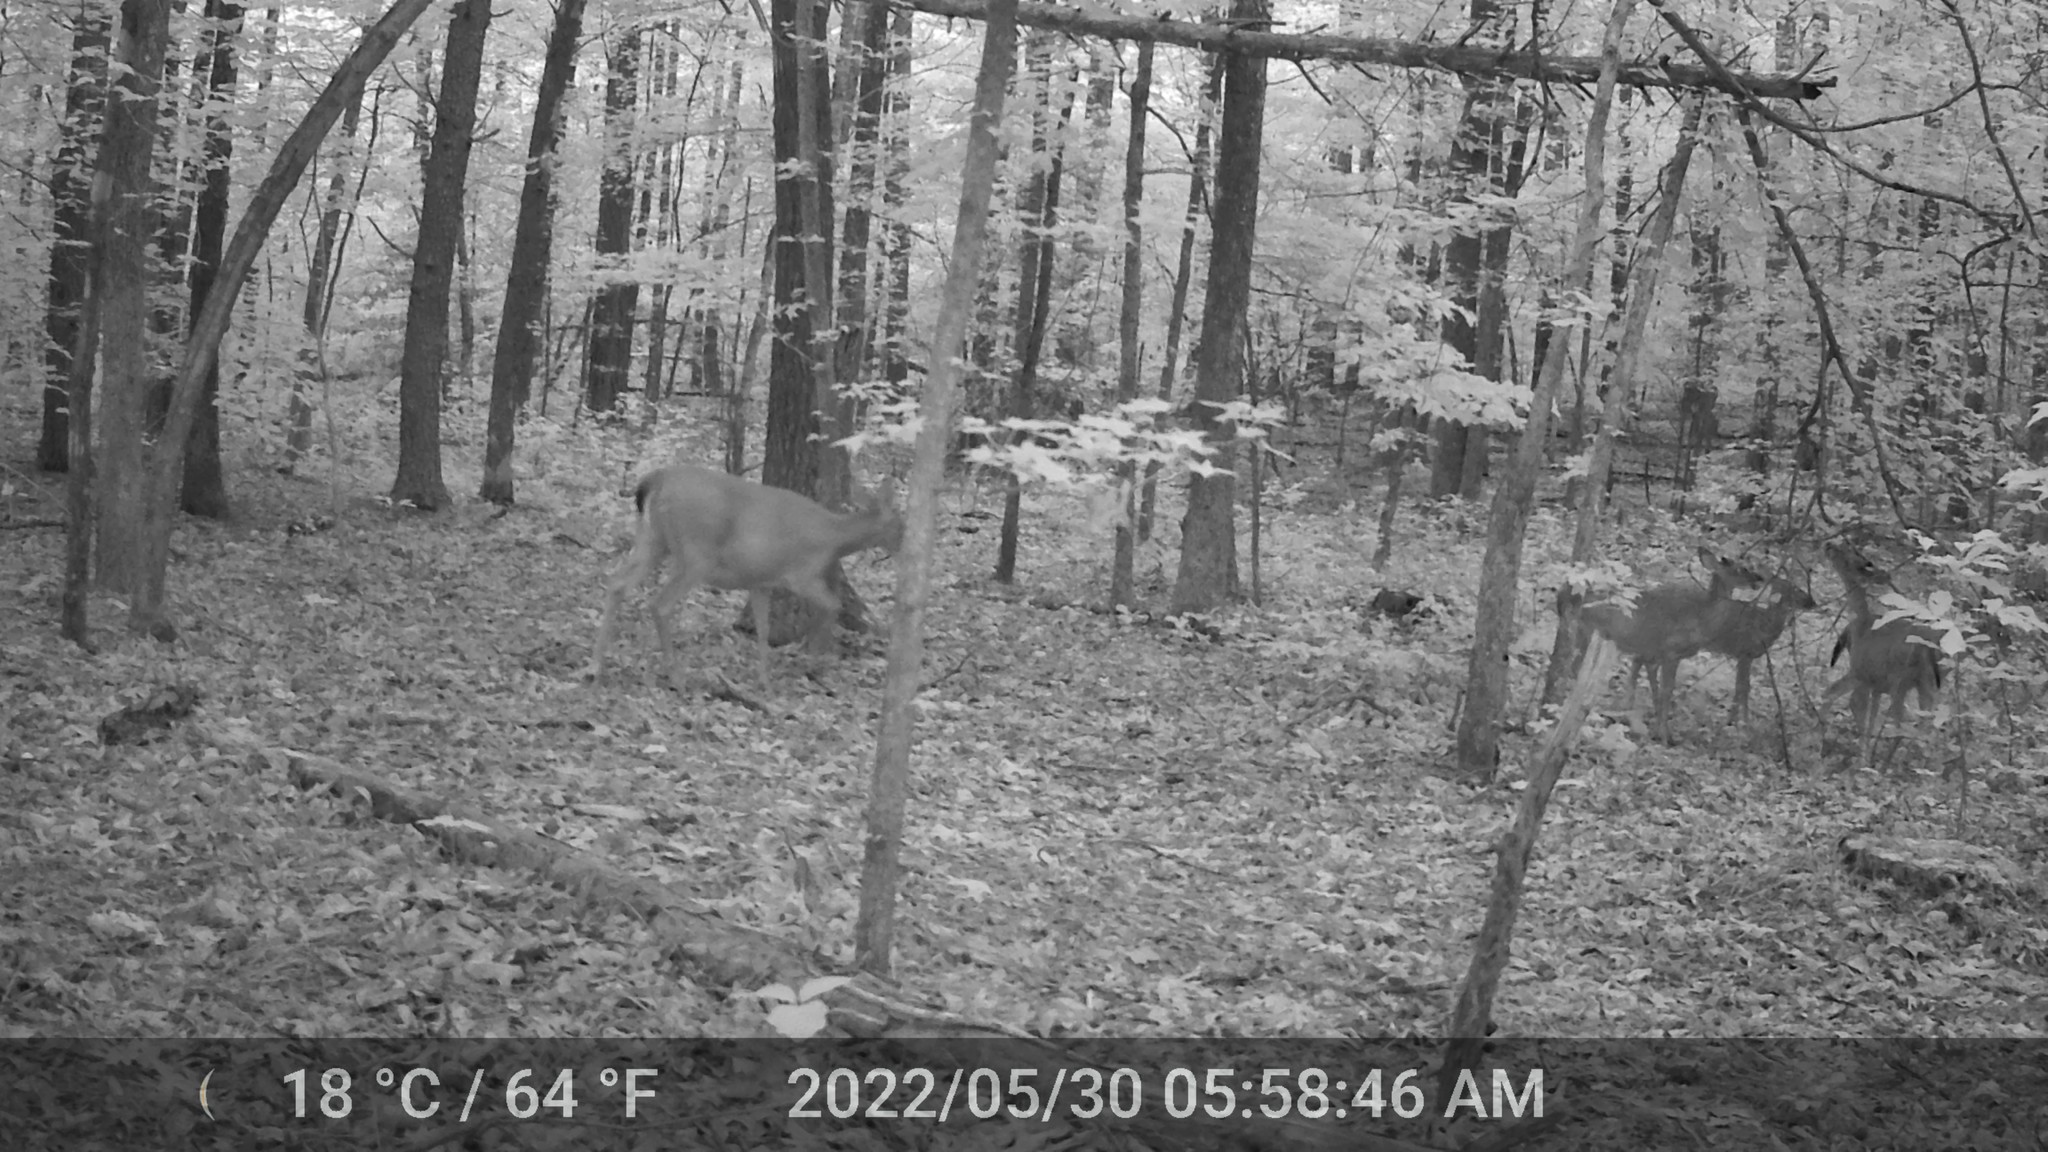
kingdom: Animalia
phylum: Chordata
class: Mammalia
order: Artiodactyla
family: Cervidae
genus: Odocoileus
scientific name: Odocoileus virginianus
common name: White-tailed deer
